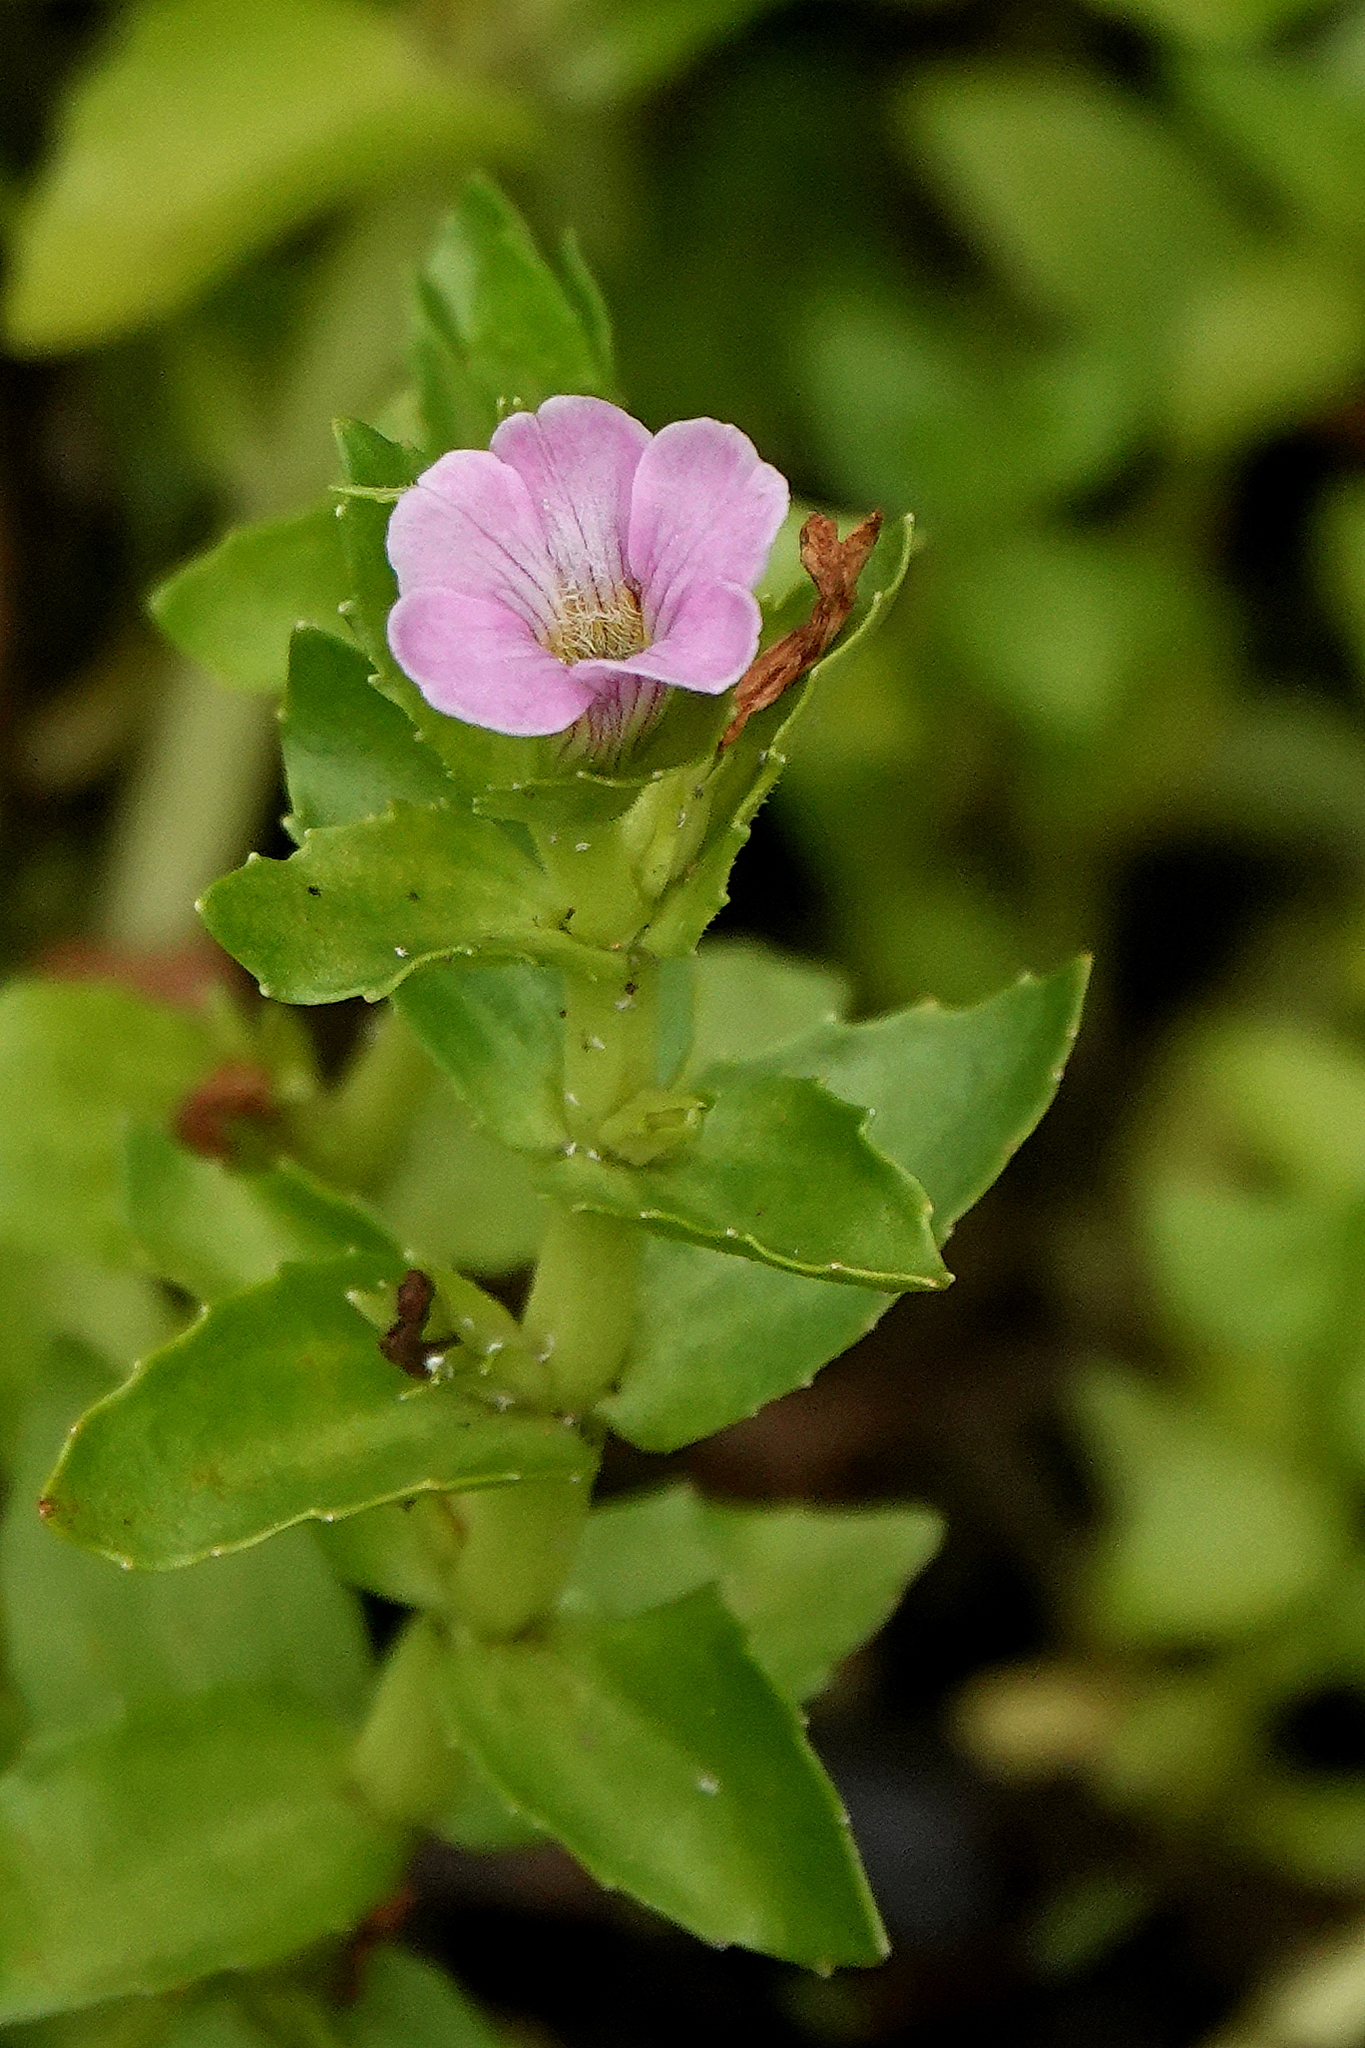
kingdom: Plantae
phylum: Tracheophyta
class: Magnoliopsida
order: Lamiales
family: Plantaginaceae
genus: Gratiola
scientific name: Gratiola peruviana
